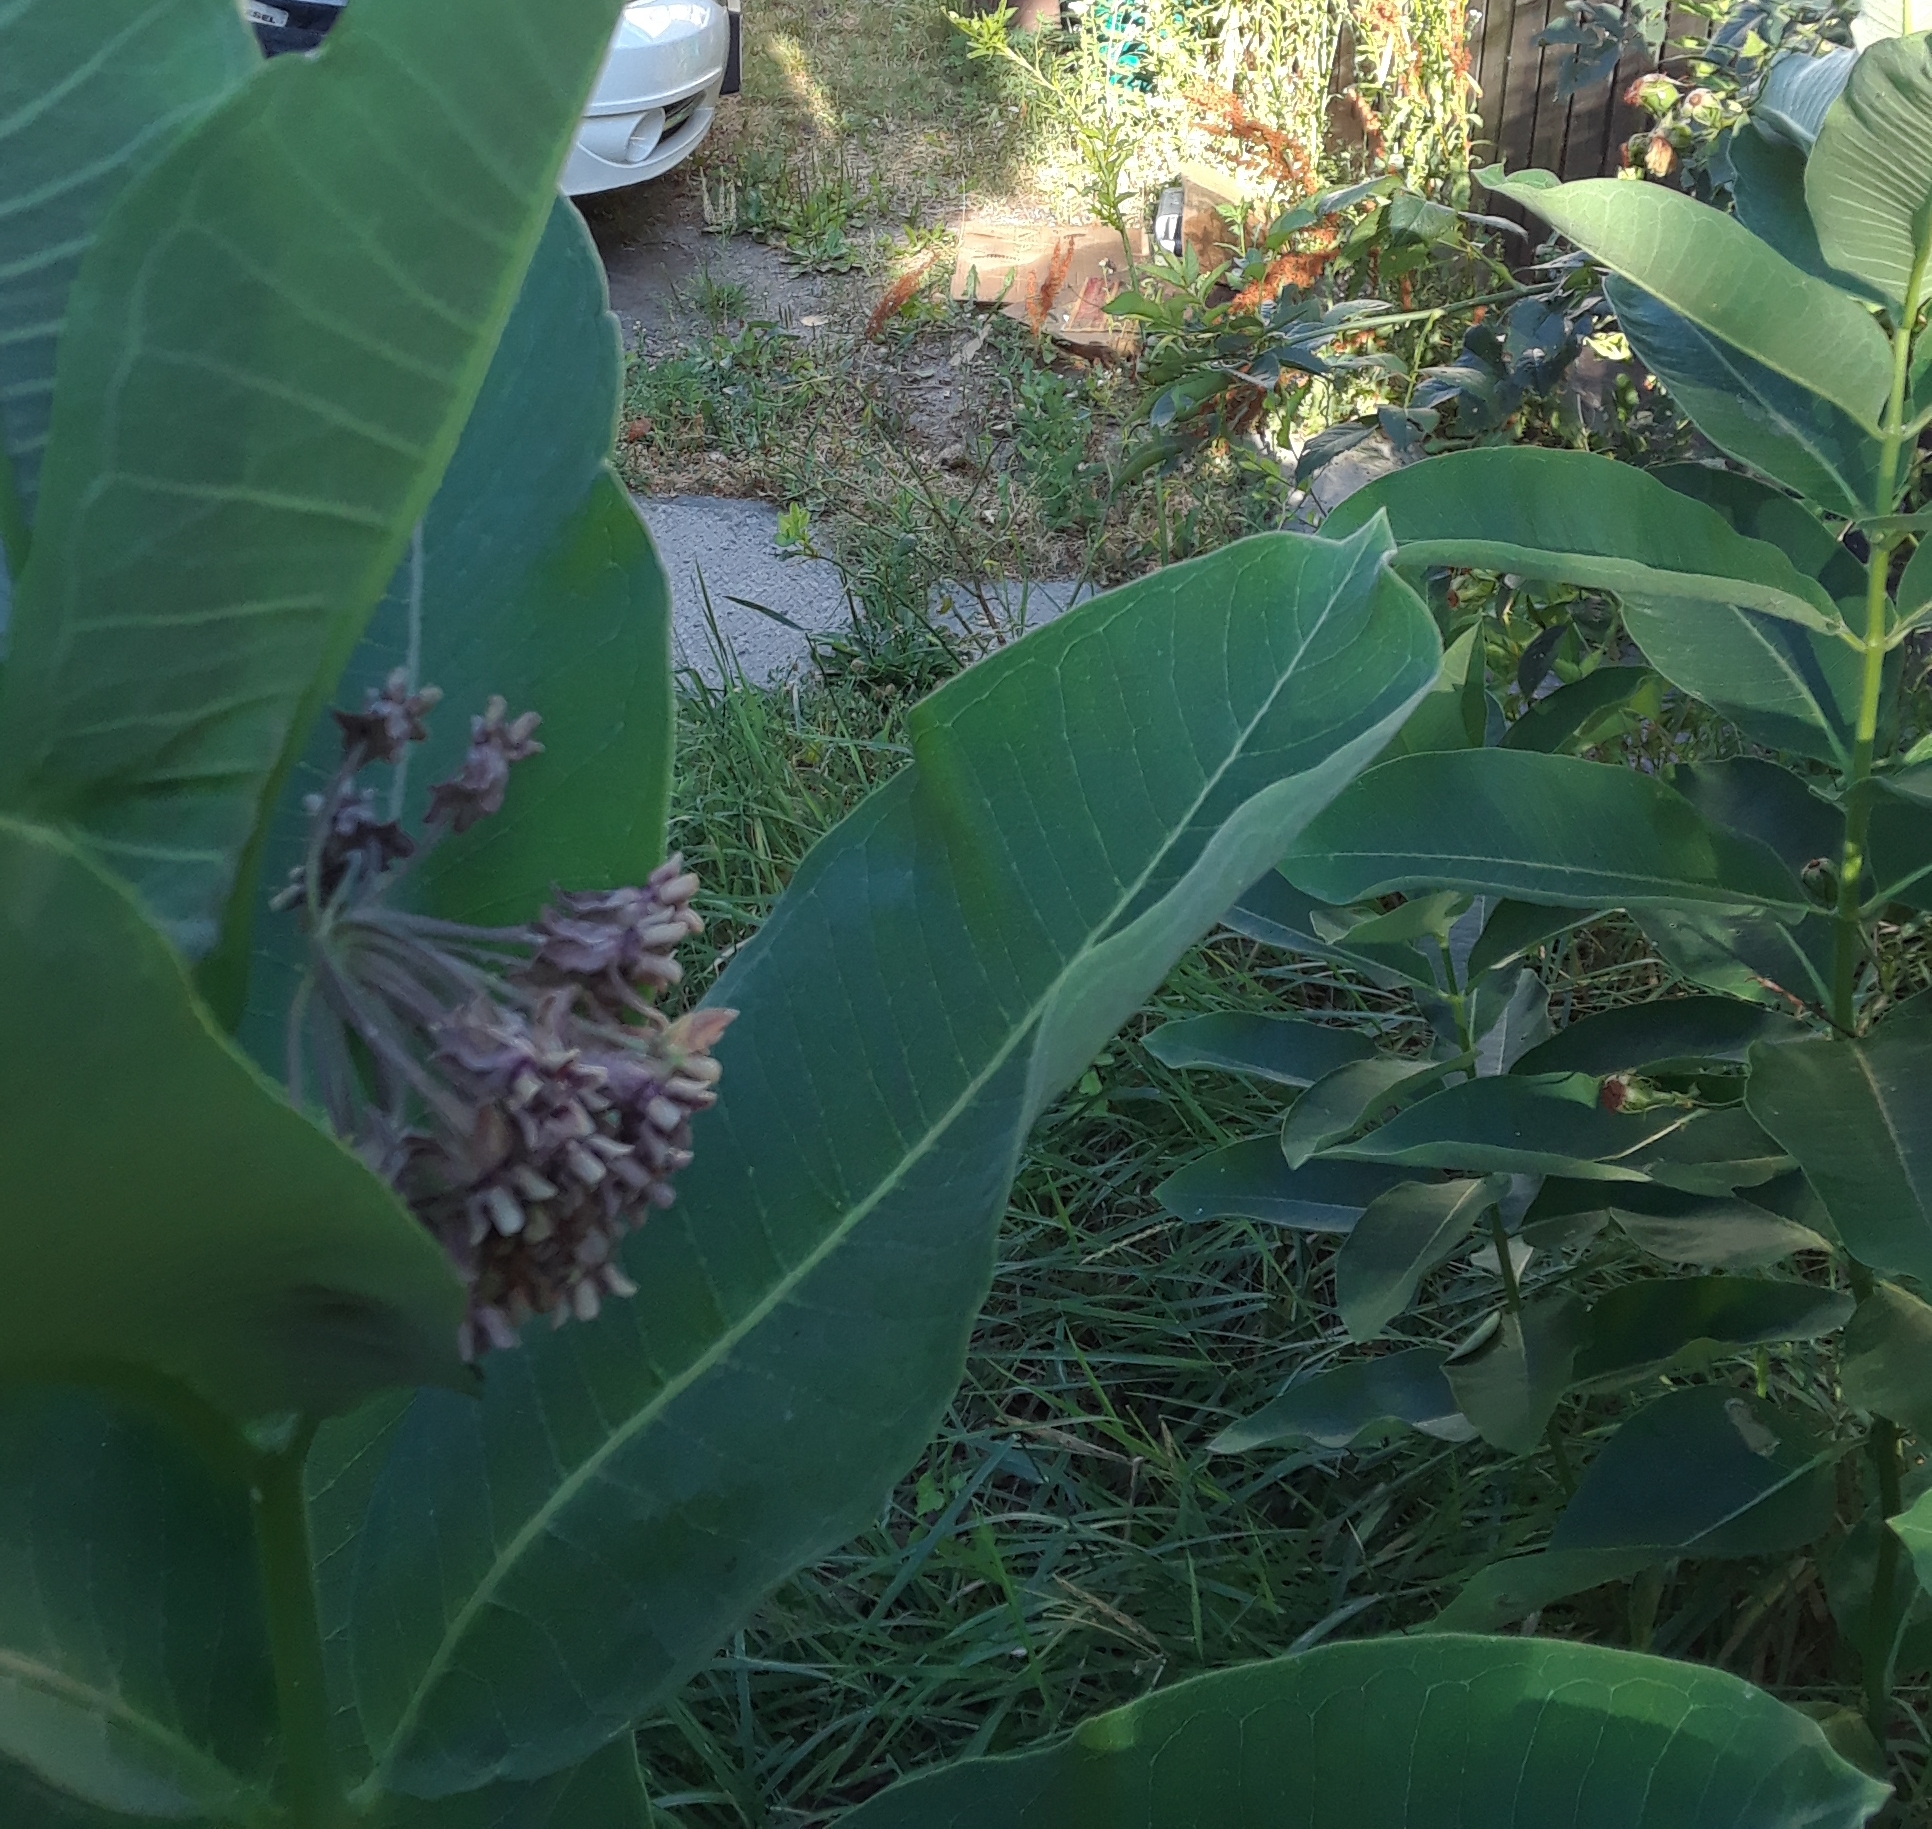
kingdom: Plantae
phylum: Tracheophyta
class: Magnoliopsida
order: Gentianales
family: Apocynaceae
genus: Asclepias
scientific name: Asclepias syriaca
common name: Common milkweed
